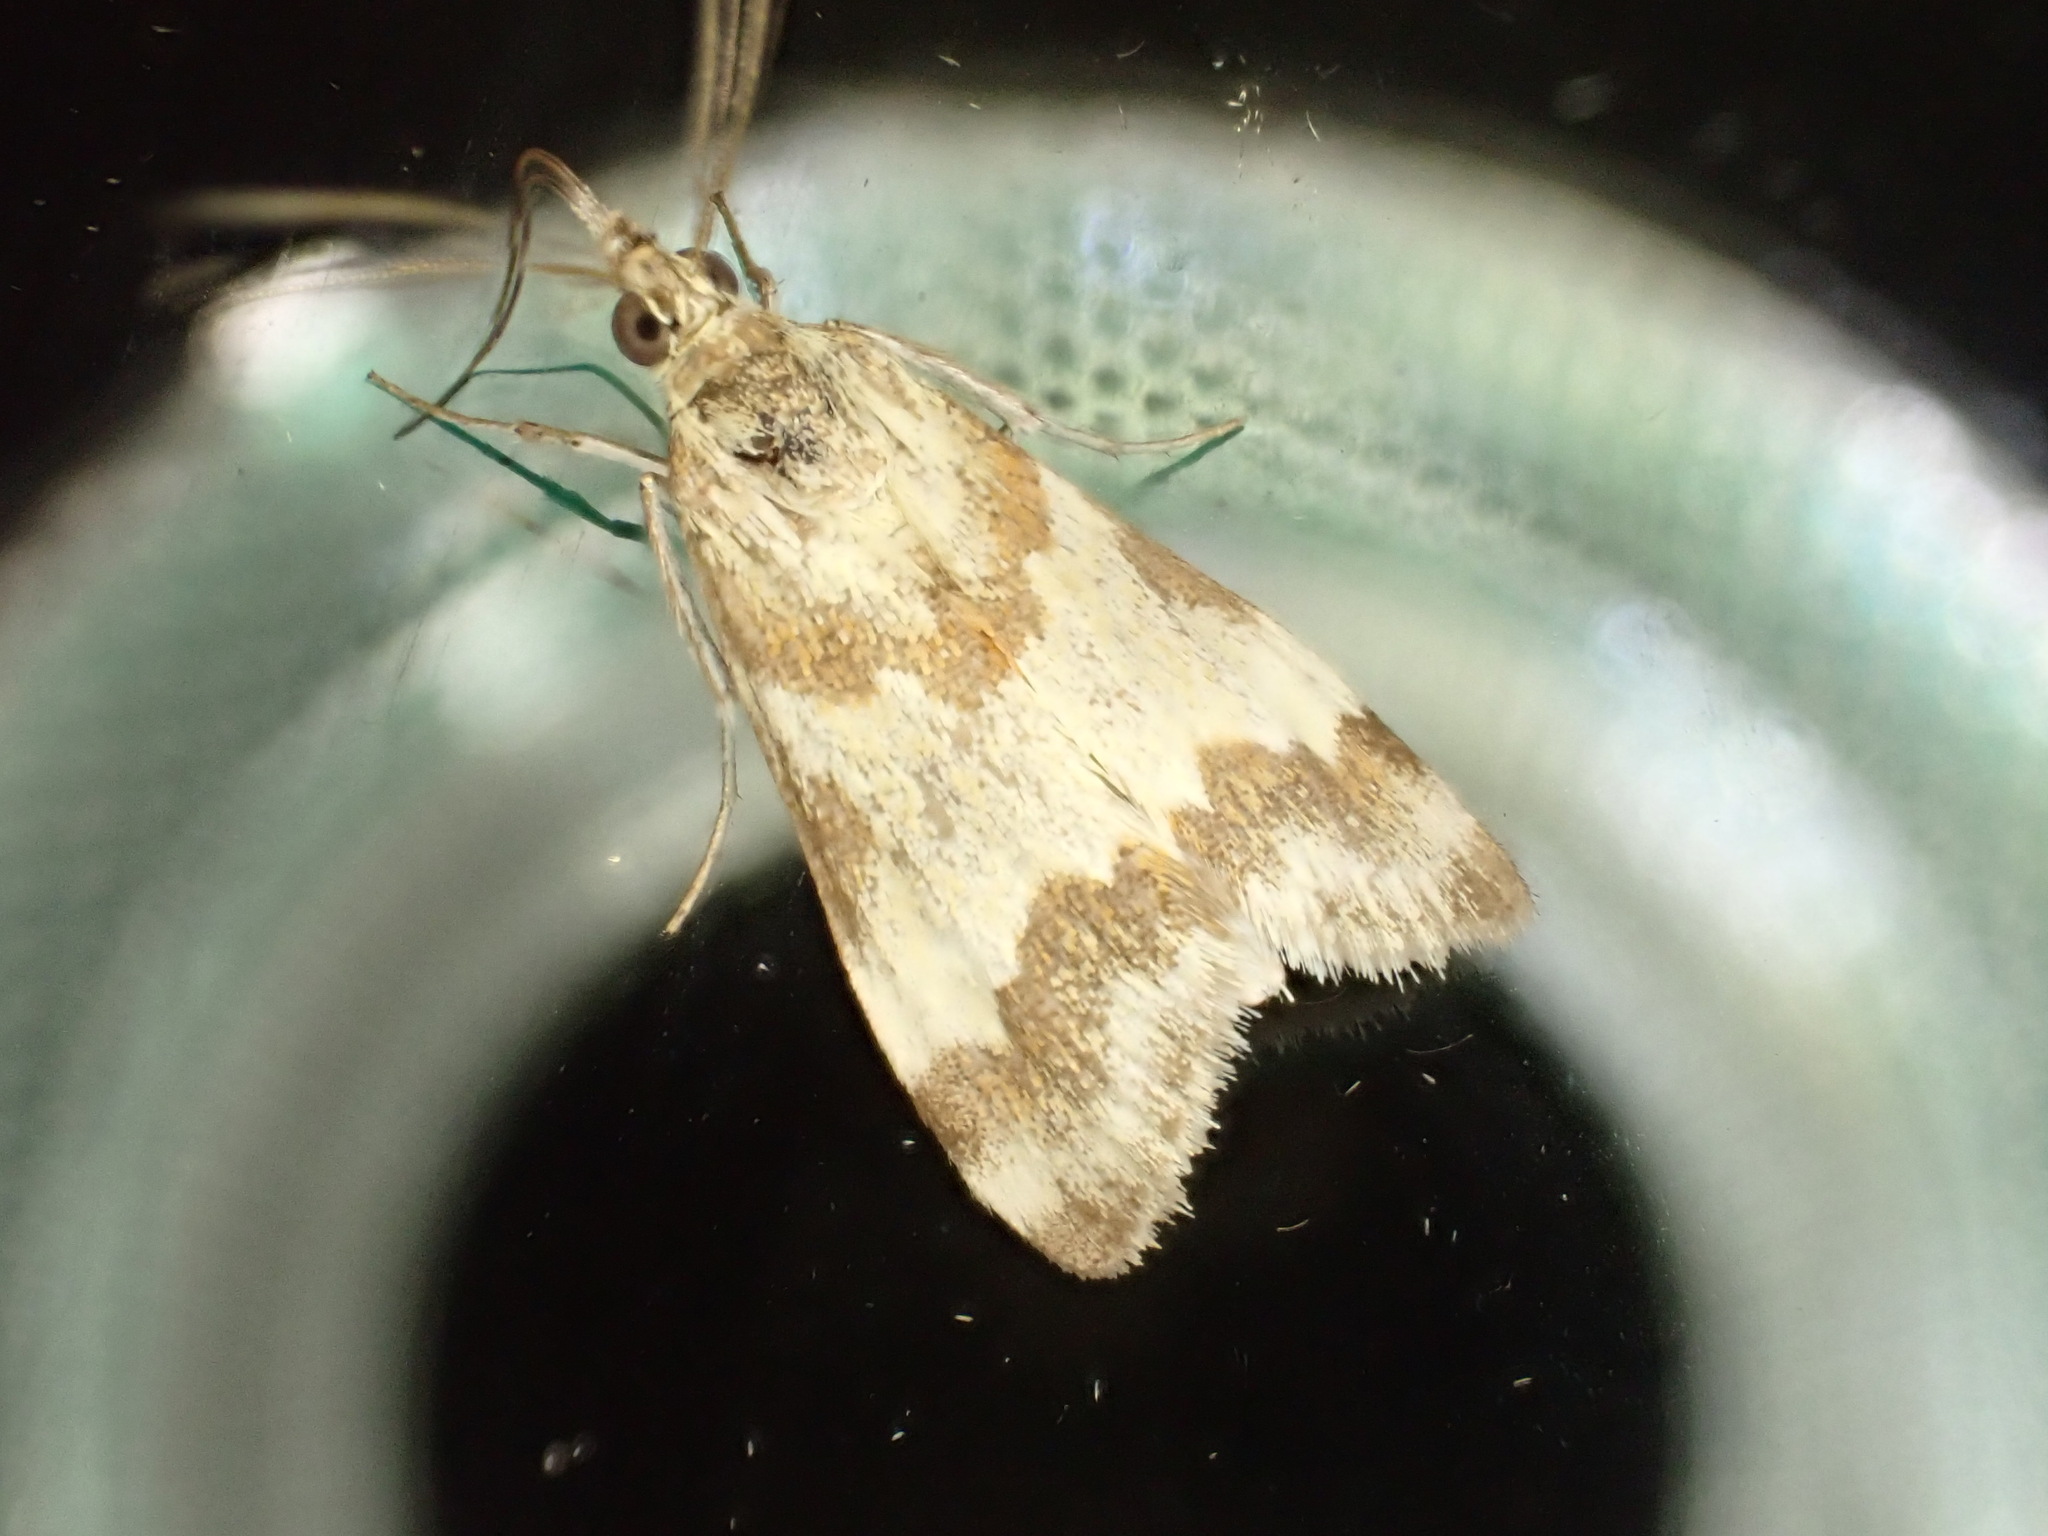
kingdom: Animalia
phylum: Arthropoda
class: Insecta
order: Lepidoptera
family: Crambidae
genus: Noctuelia
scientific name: Noctuelia Mimoschinia rufofascialis
